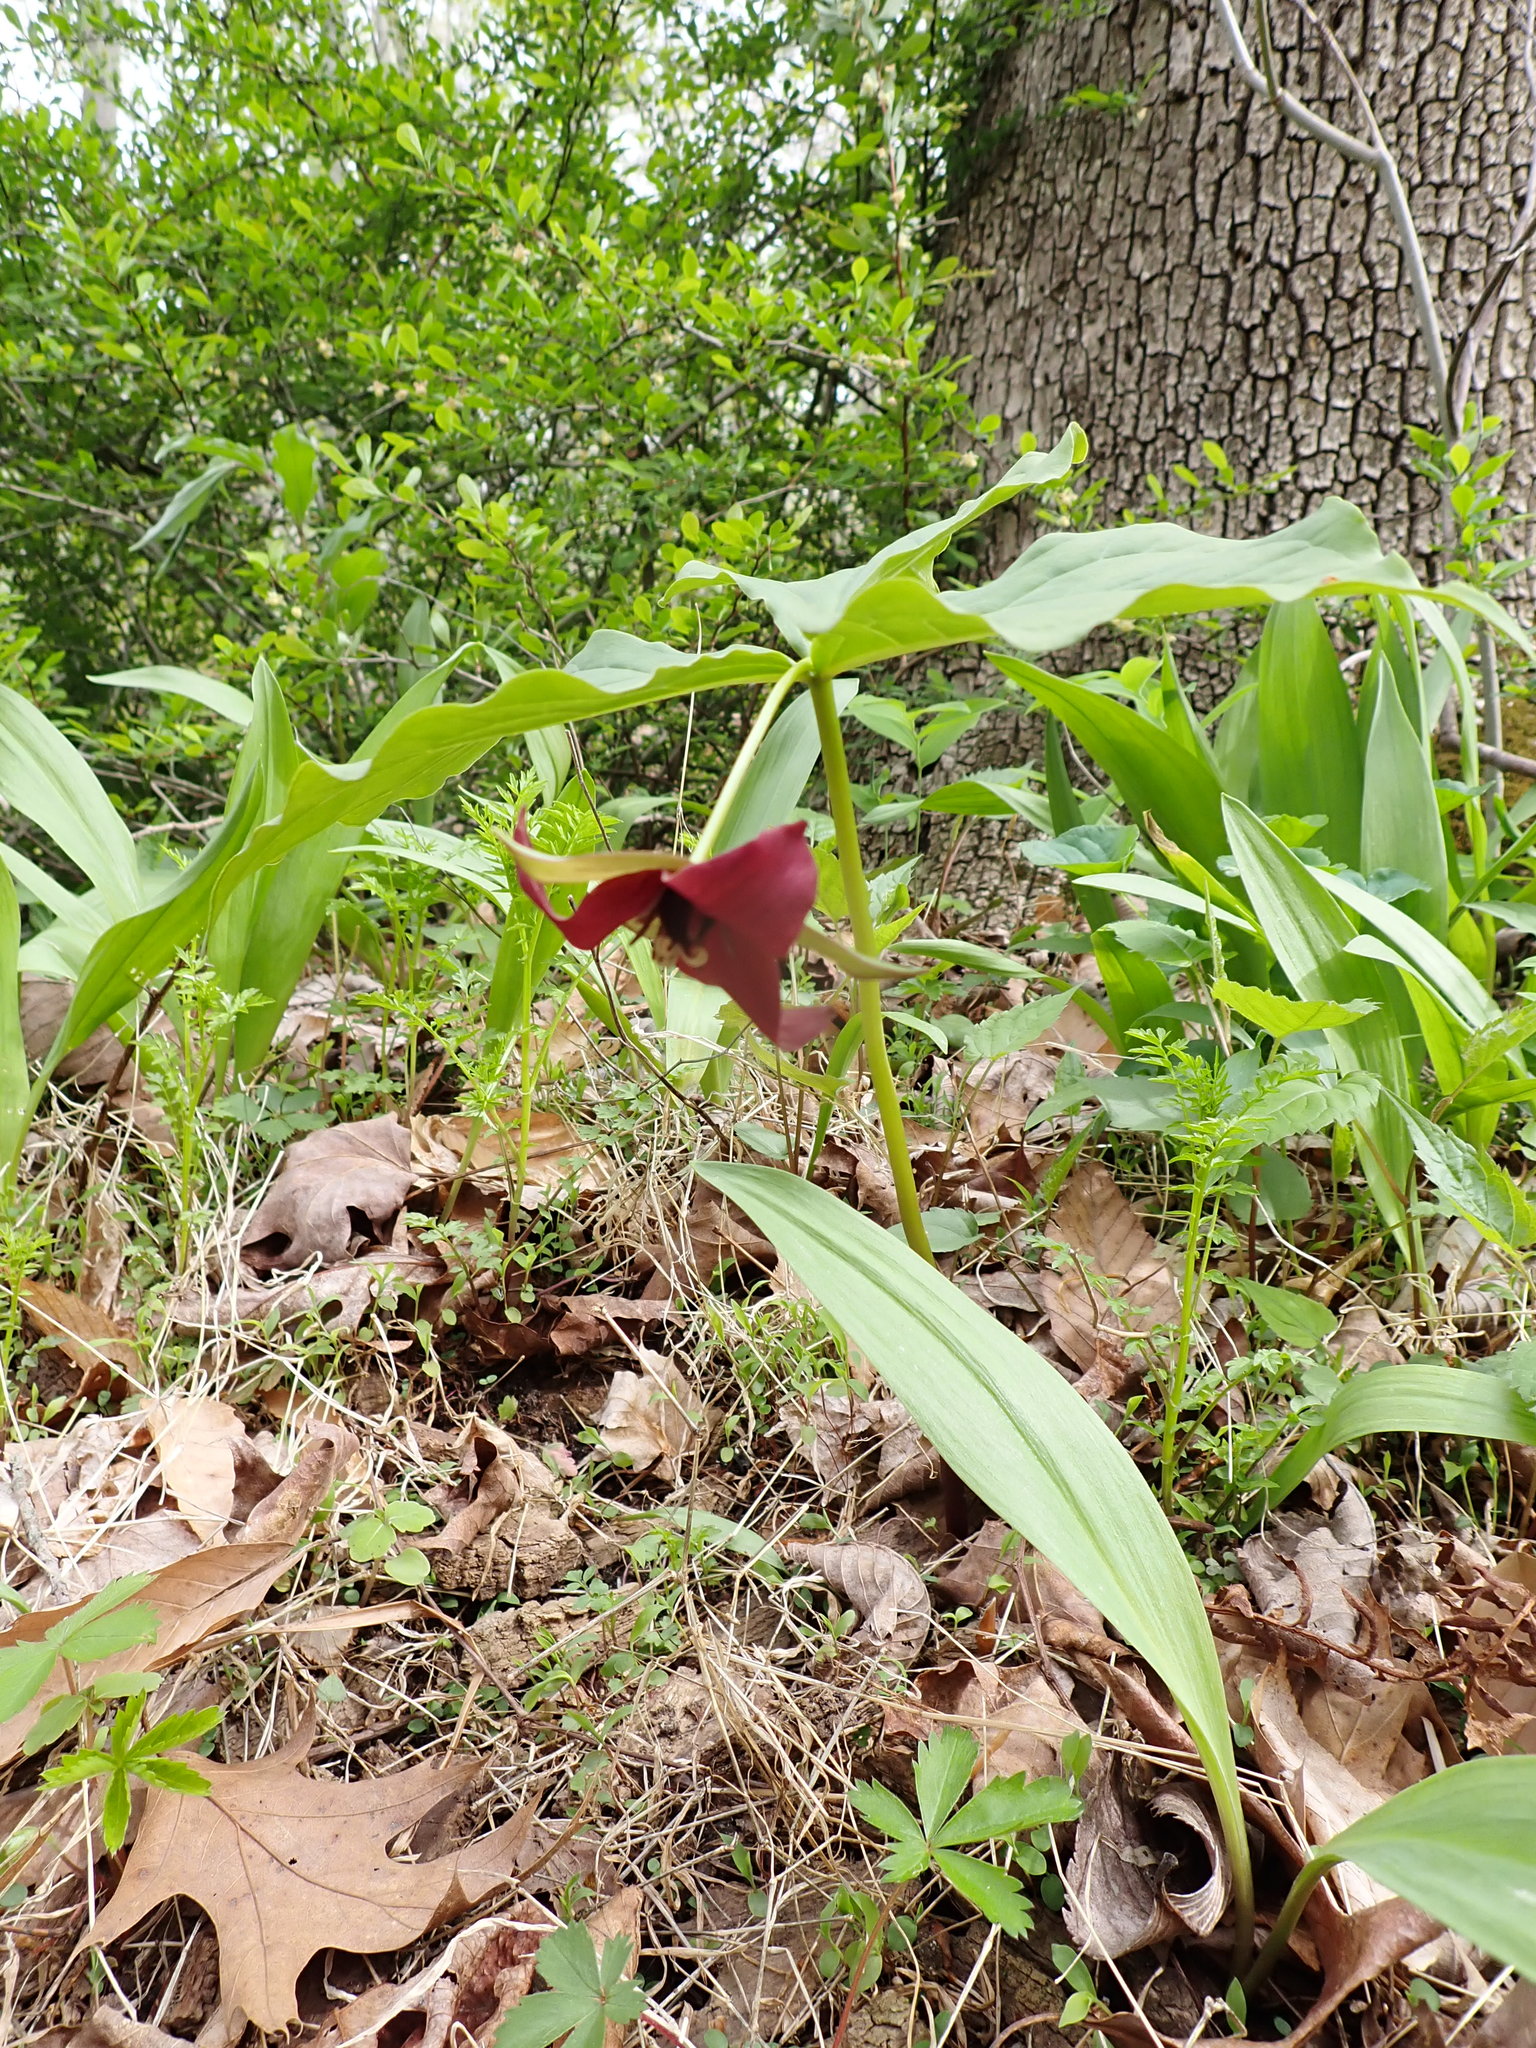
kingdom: Plantae
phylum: Tracheophyta
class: Liliopsida
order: Liliales
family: Melanthiaceae
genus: Trillium
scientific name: Trillium erectum
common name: Purple trillium
